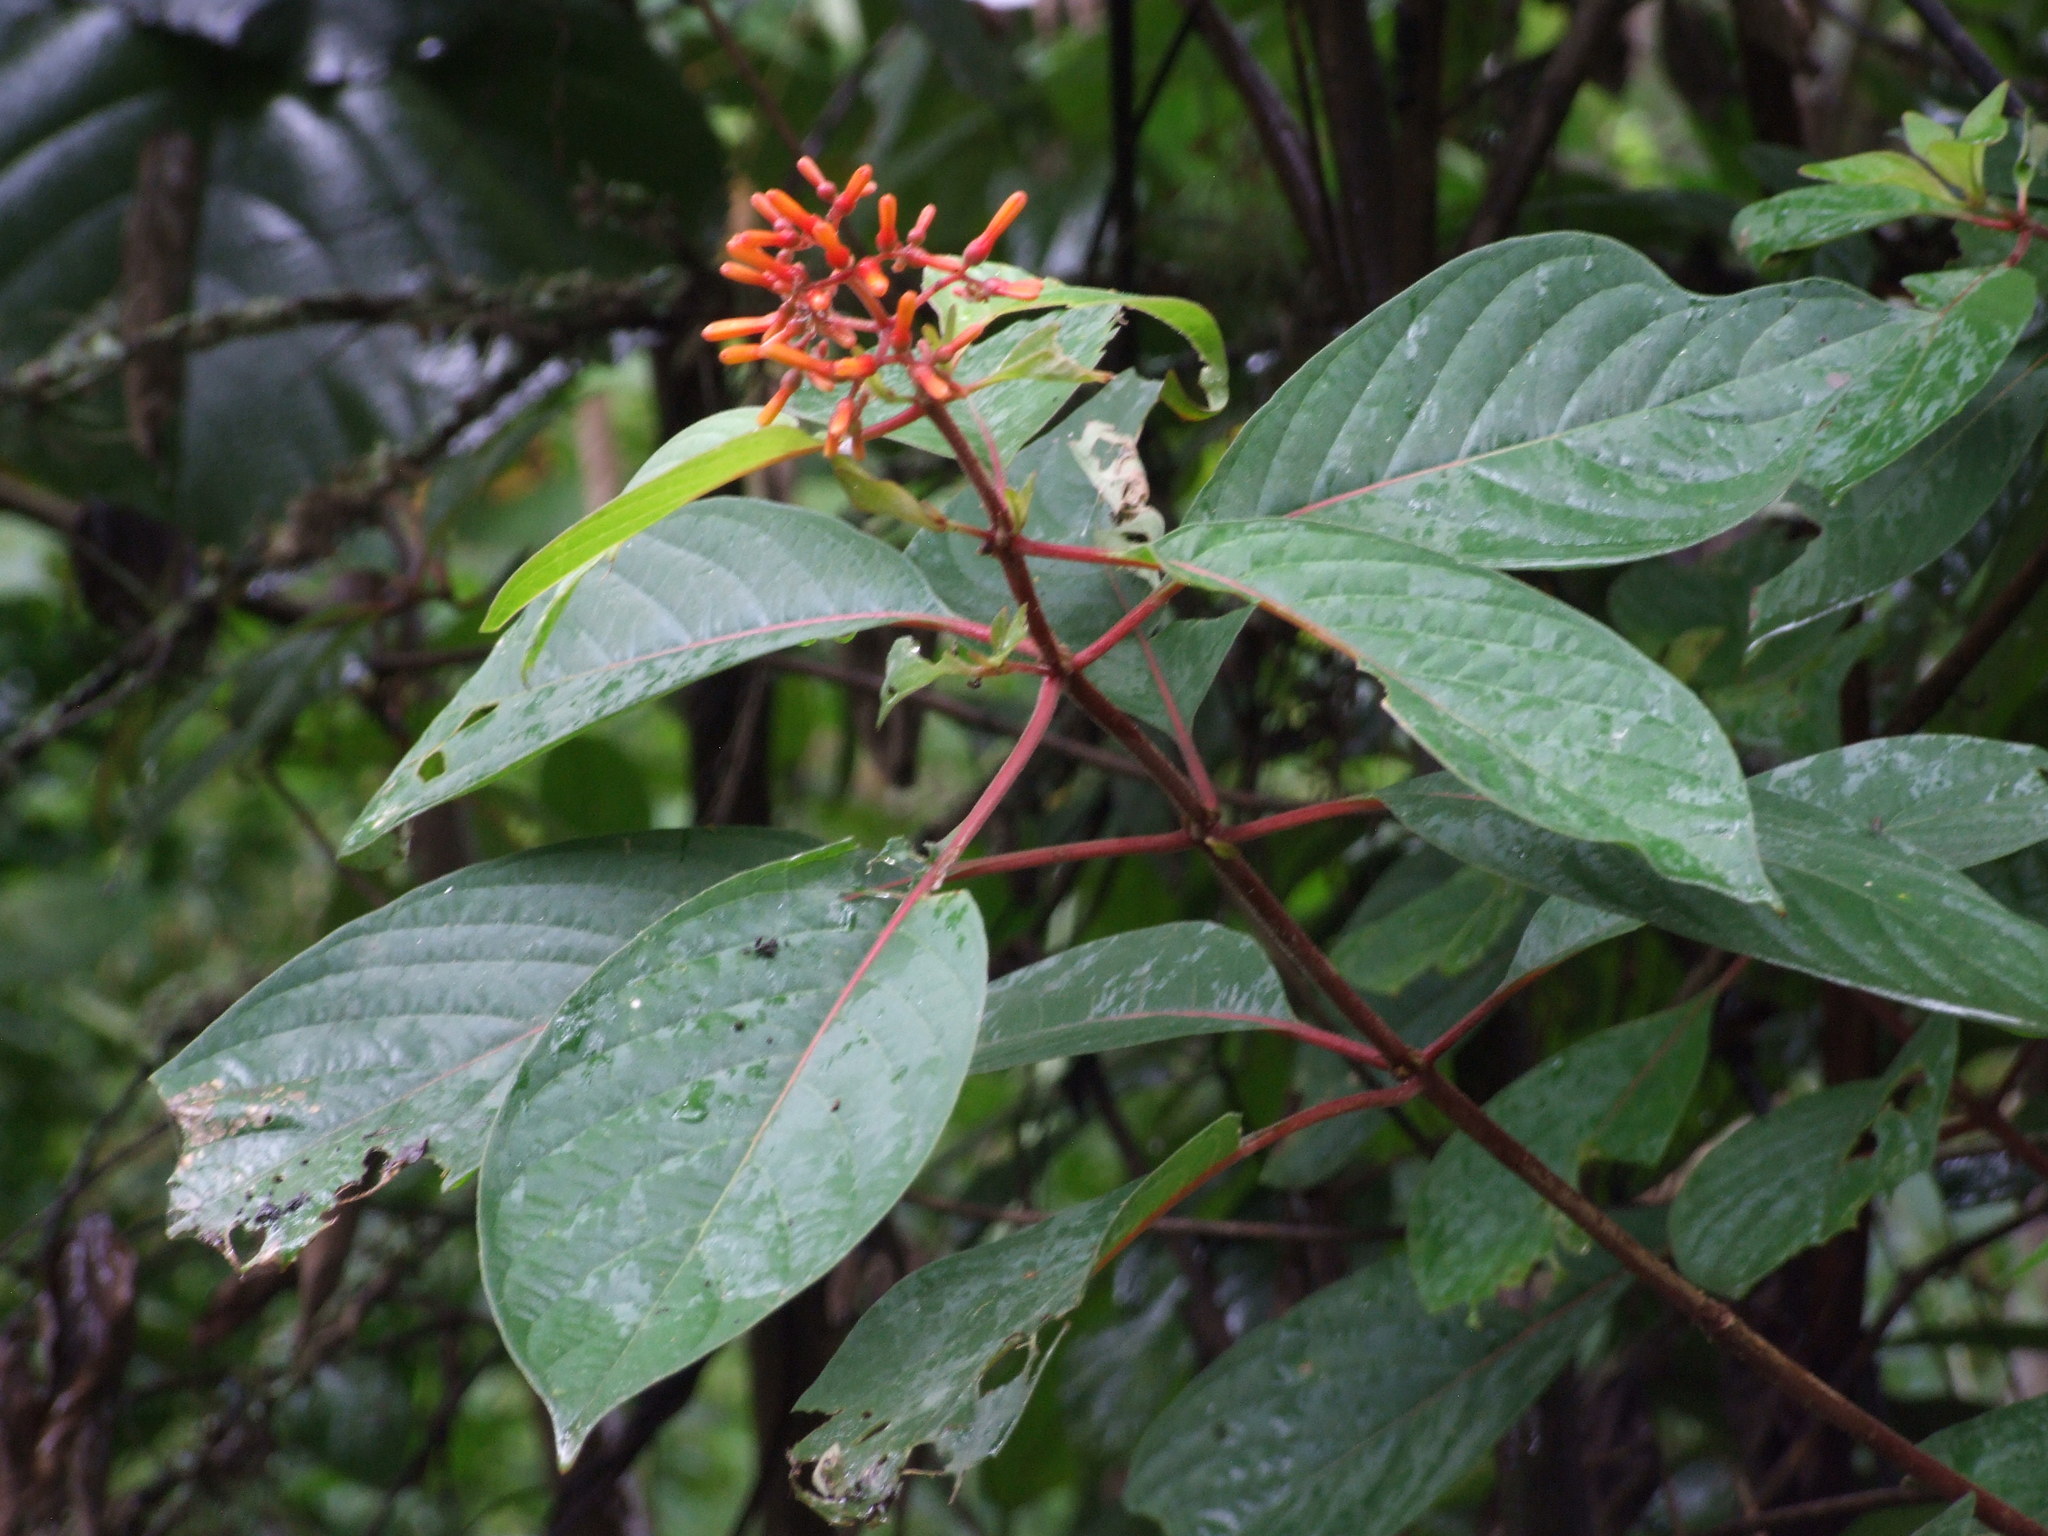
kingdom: Plantae
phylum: Tracheophyta
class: Magnoliopsida
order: Gentianales
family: Rubiaceae
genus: Hamelia
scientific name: Hamelia patens
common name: Redhead
